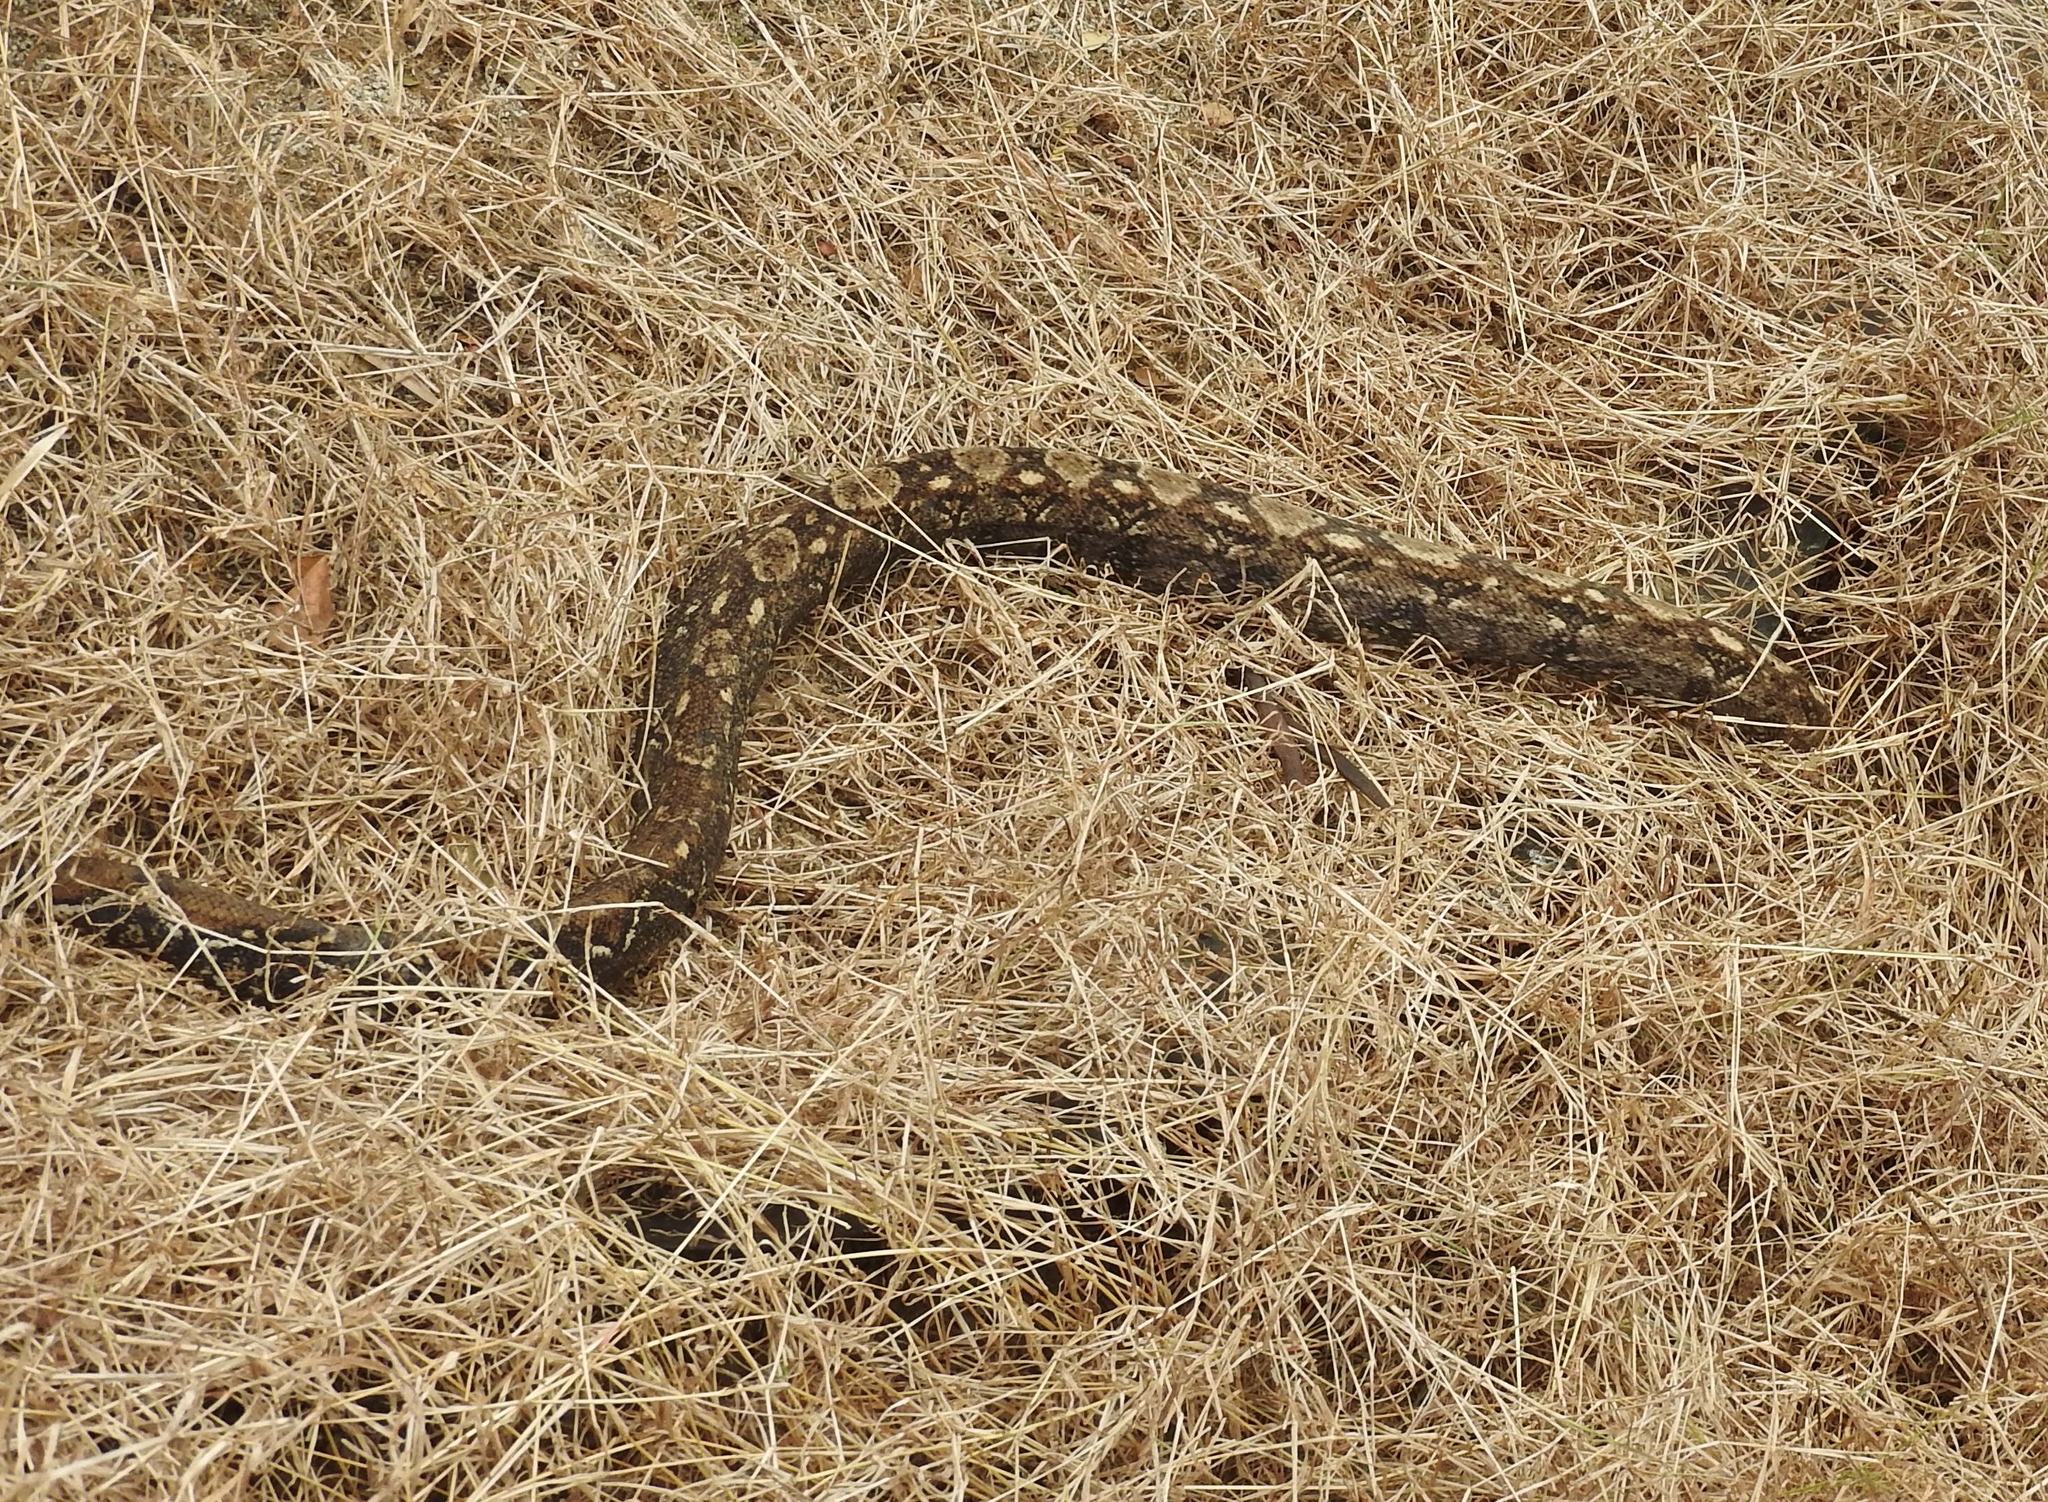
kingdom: Animalia
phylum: Chordata
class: Squamata
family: Boidae
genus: Boa
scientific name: Boa
